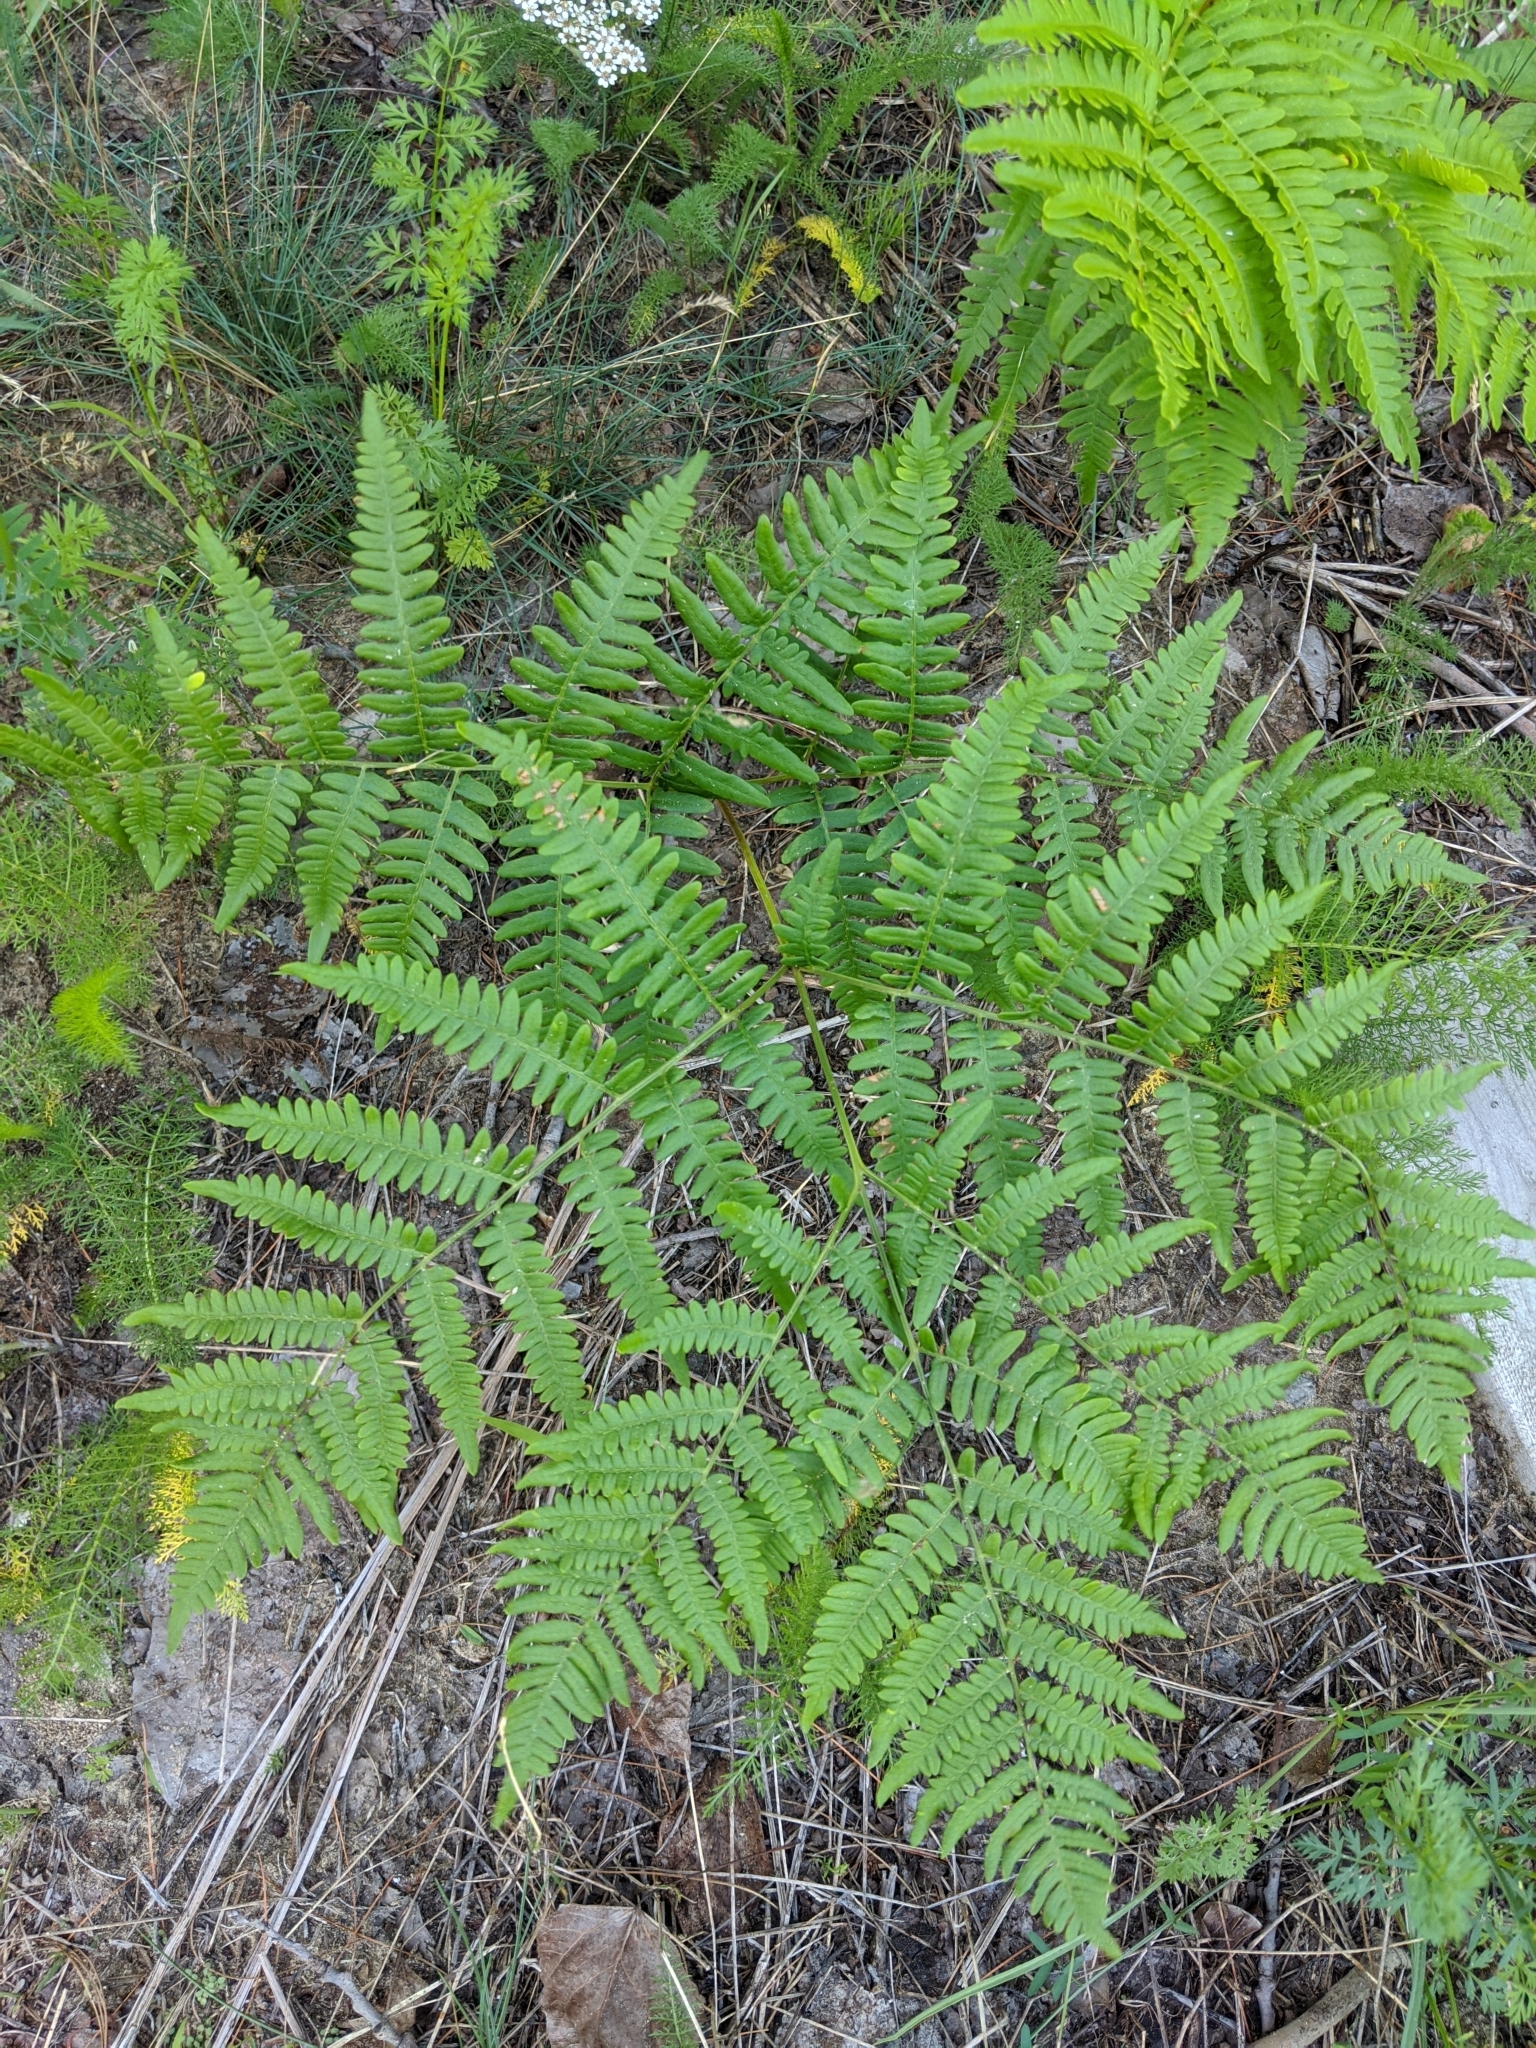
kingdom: Plantae
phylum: Tracheophyta
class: Polypodiopsida
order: Polypodiales
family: Dennstaedtiaceae
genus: Pteridium
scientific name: Pteridium aquilinum
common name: Bracken
